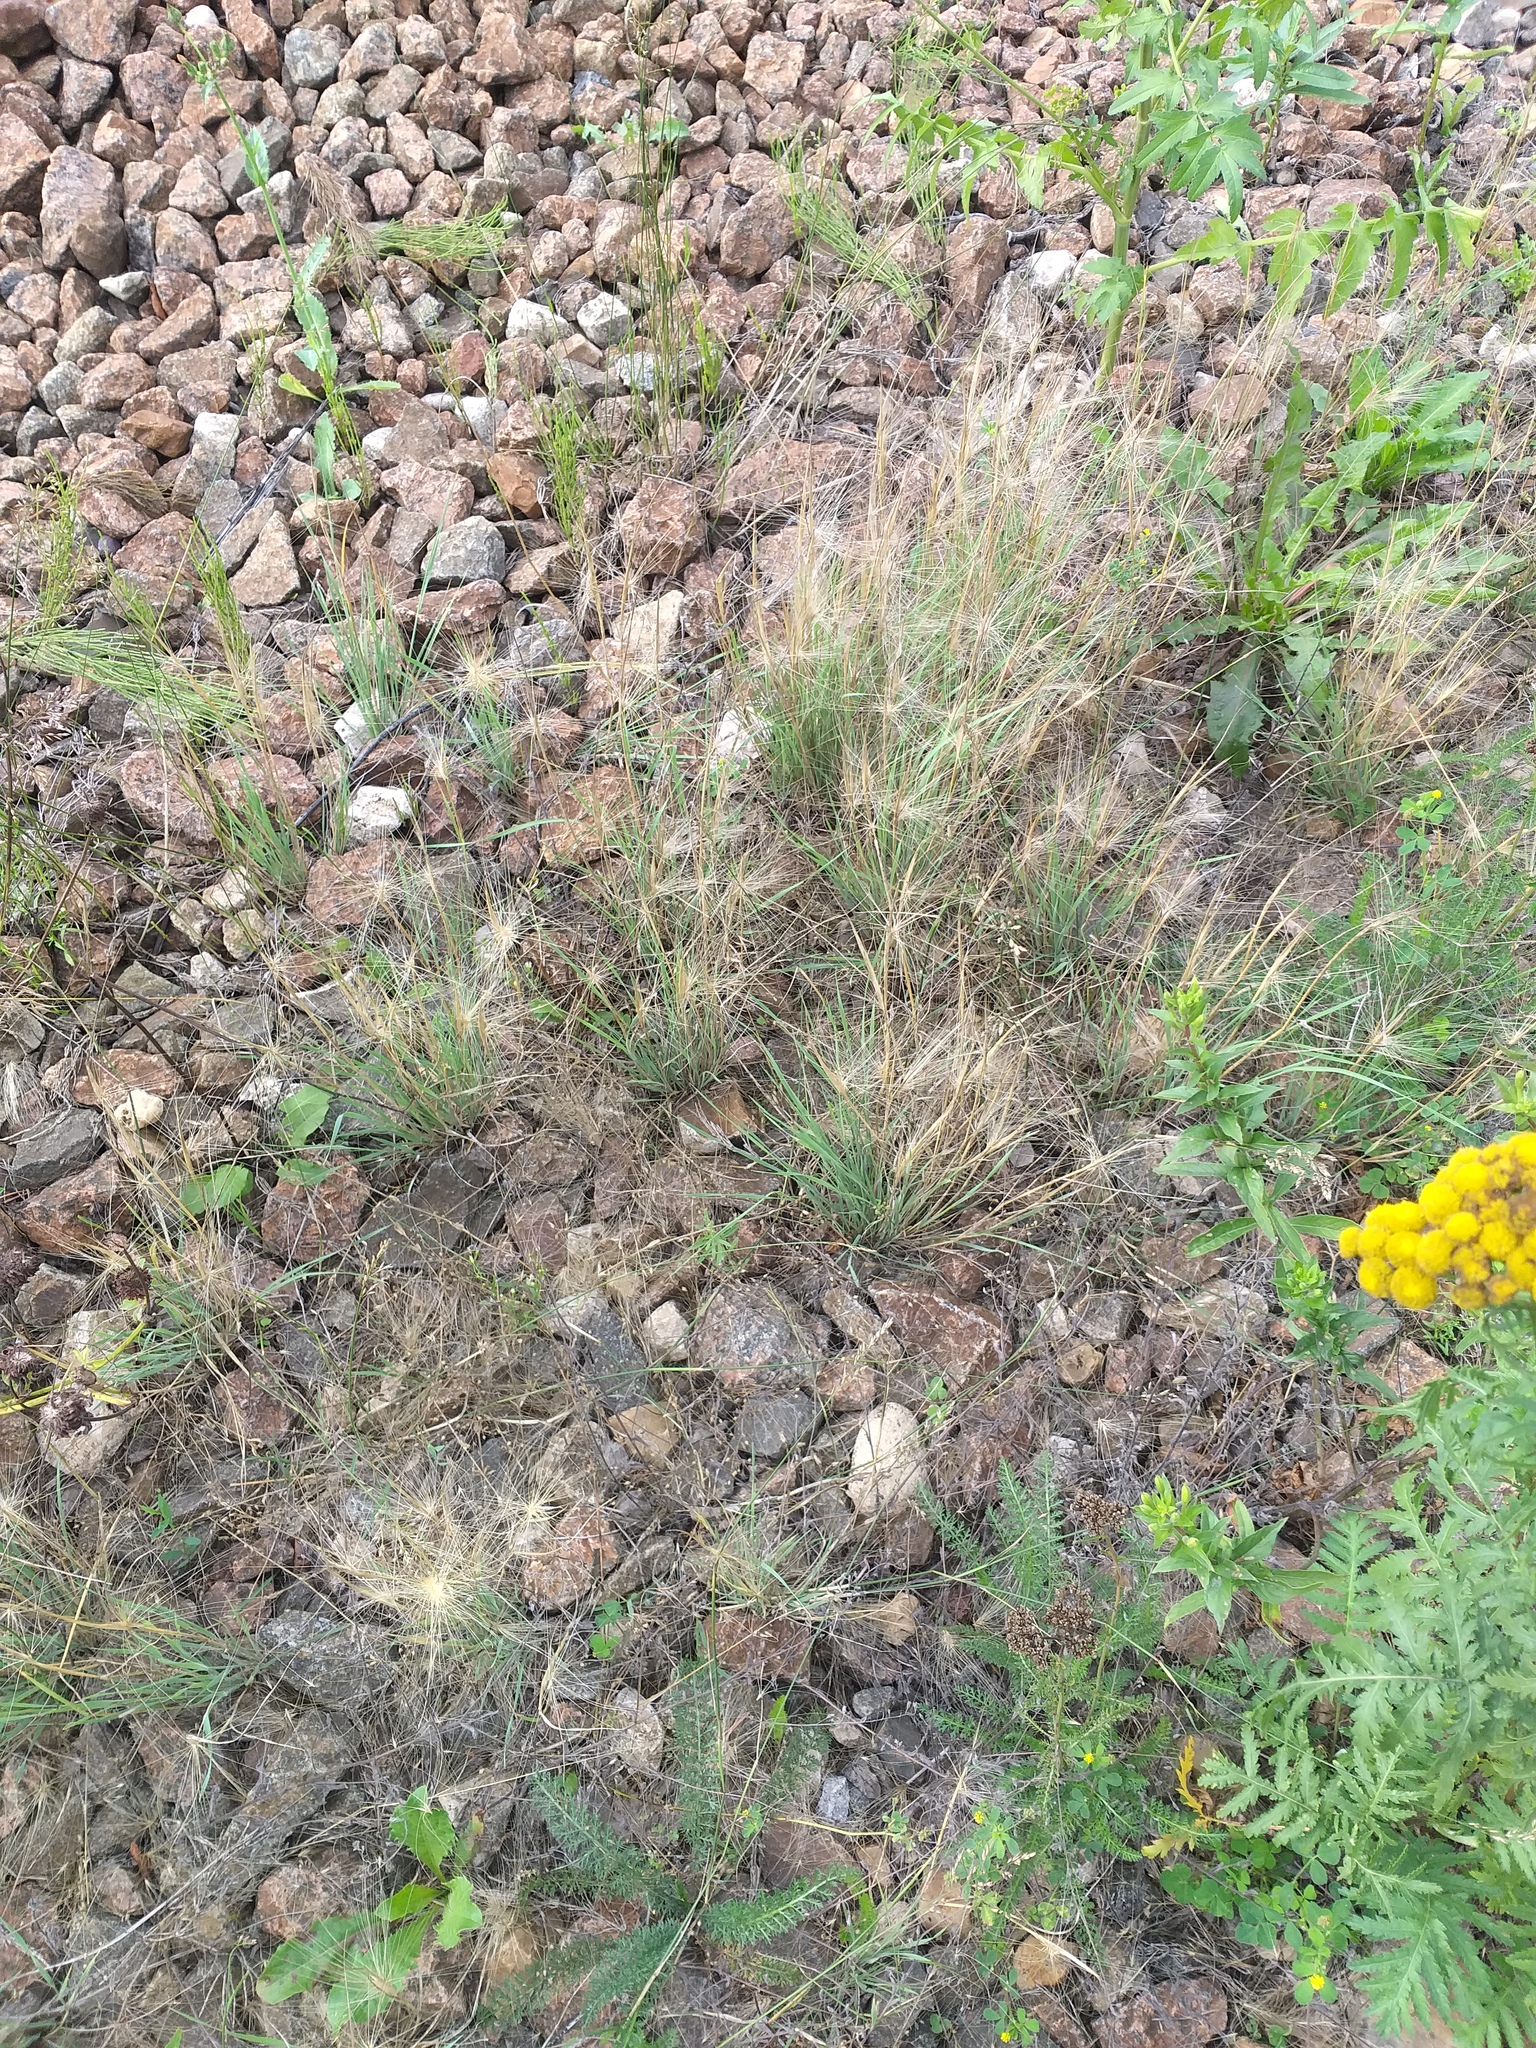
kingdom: Plantae
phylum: Tracheophyta
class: Liliopsida
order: Poales
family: Poaceae
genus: Hordeum
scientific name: Hordeum jubatum
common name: Foxtail barley
